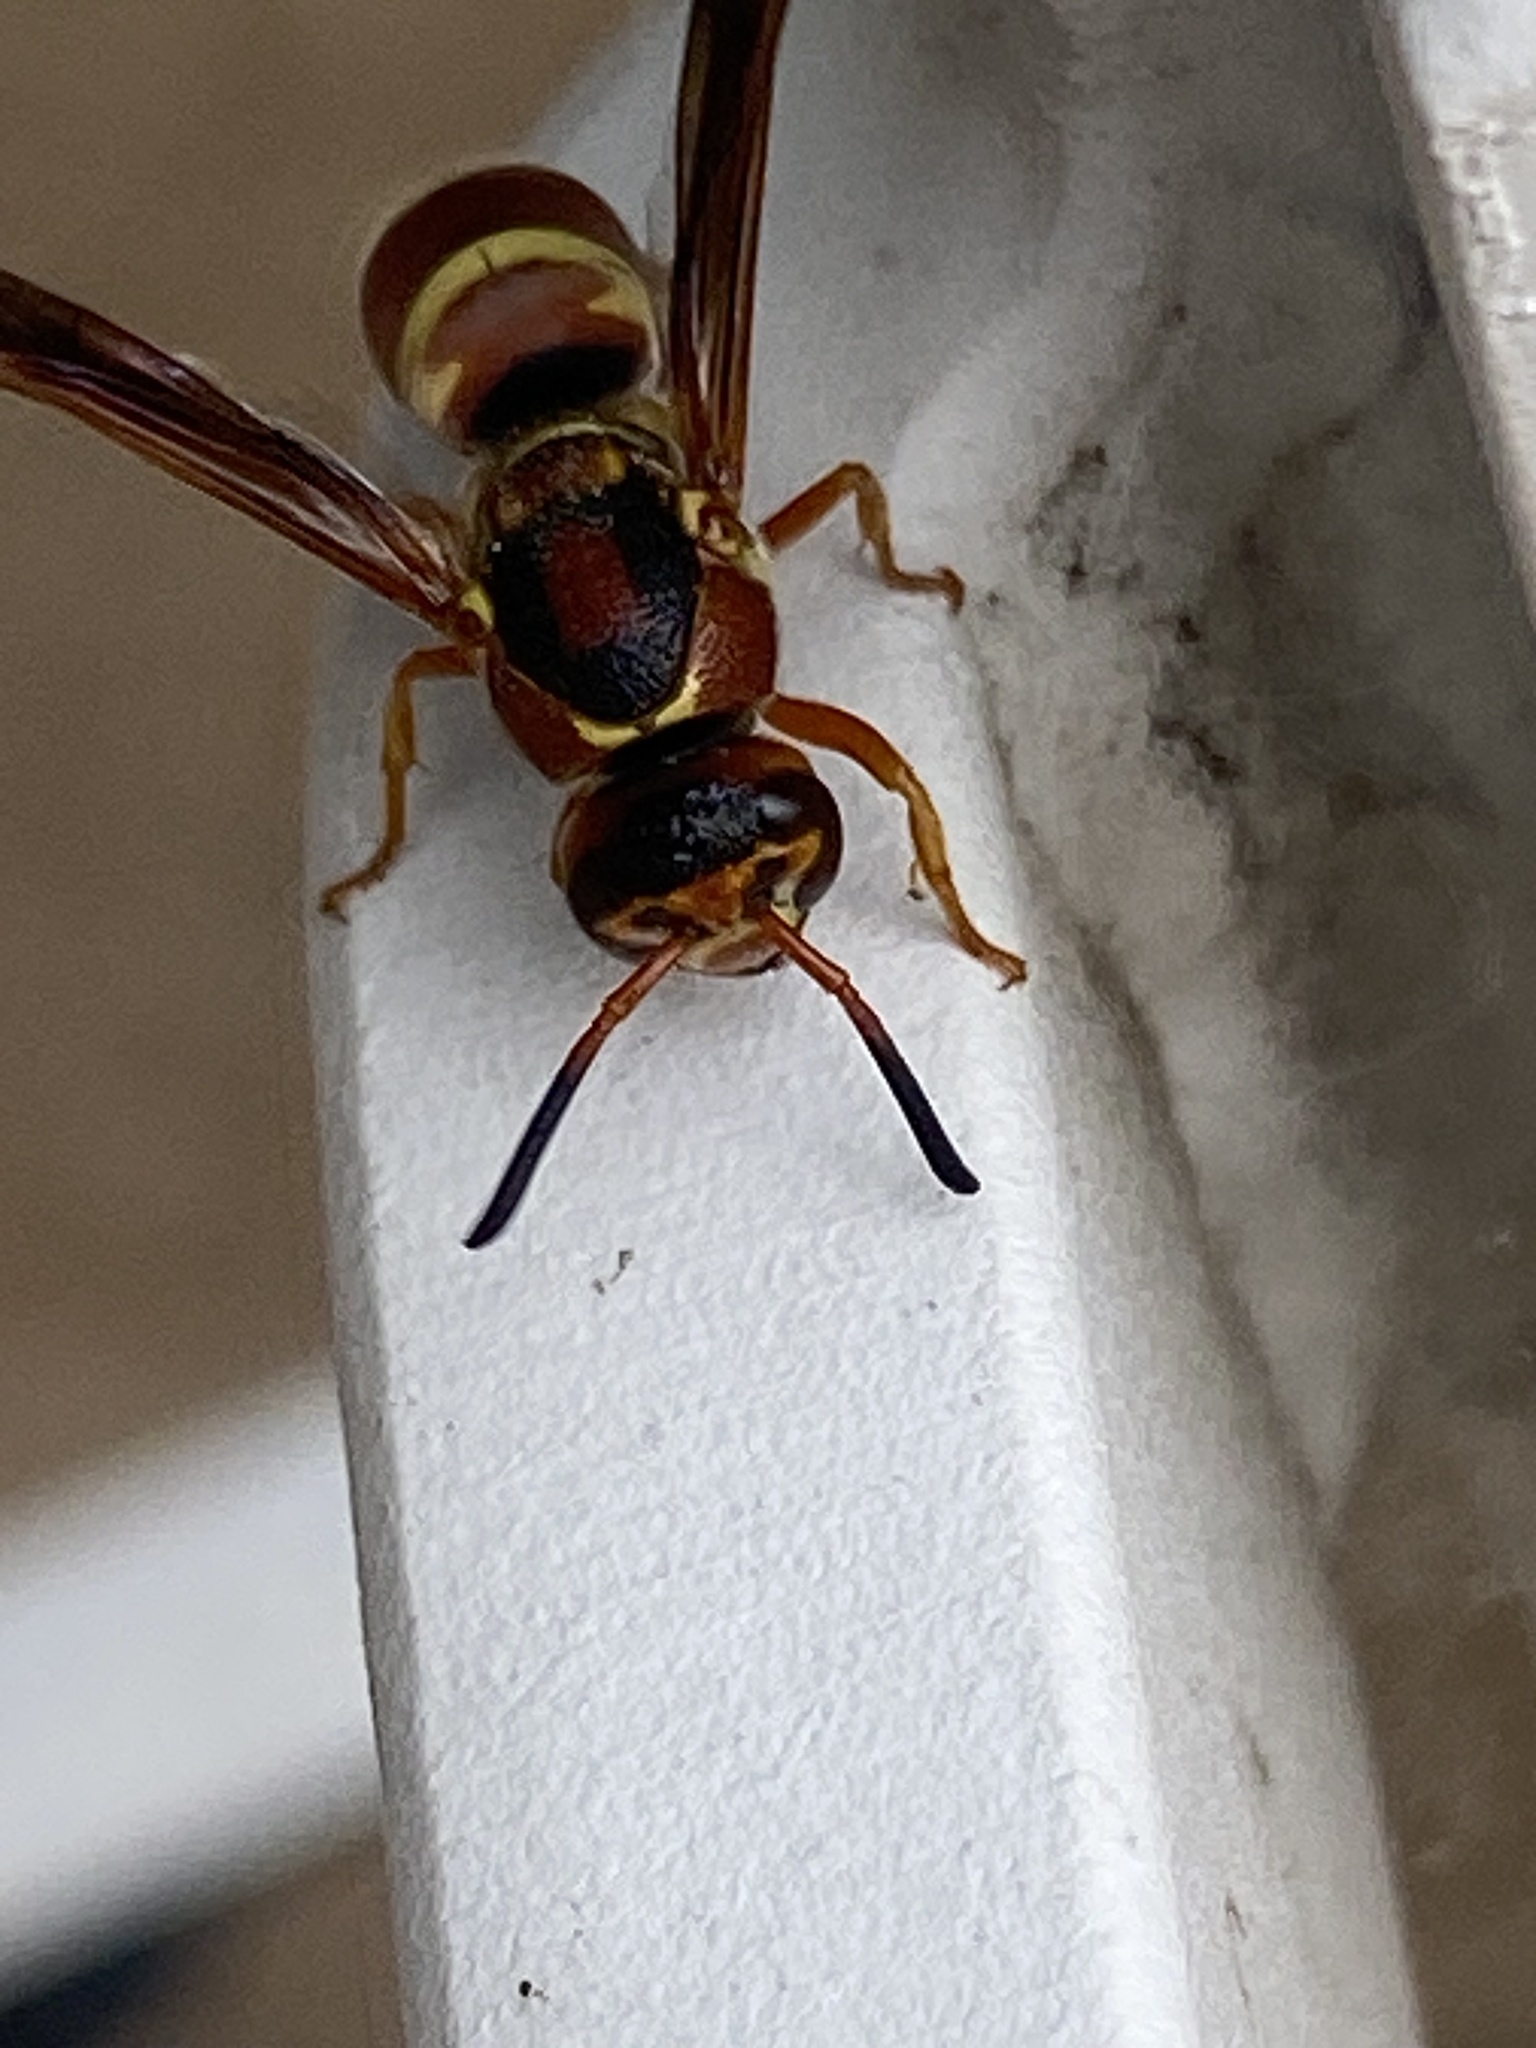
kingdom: Animalia
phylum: Arthropoda
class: Insecta
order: Hymenoptera
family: Eumenidae
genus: Euodynerus
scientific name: Euodynerus pratensis
